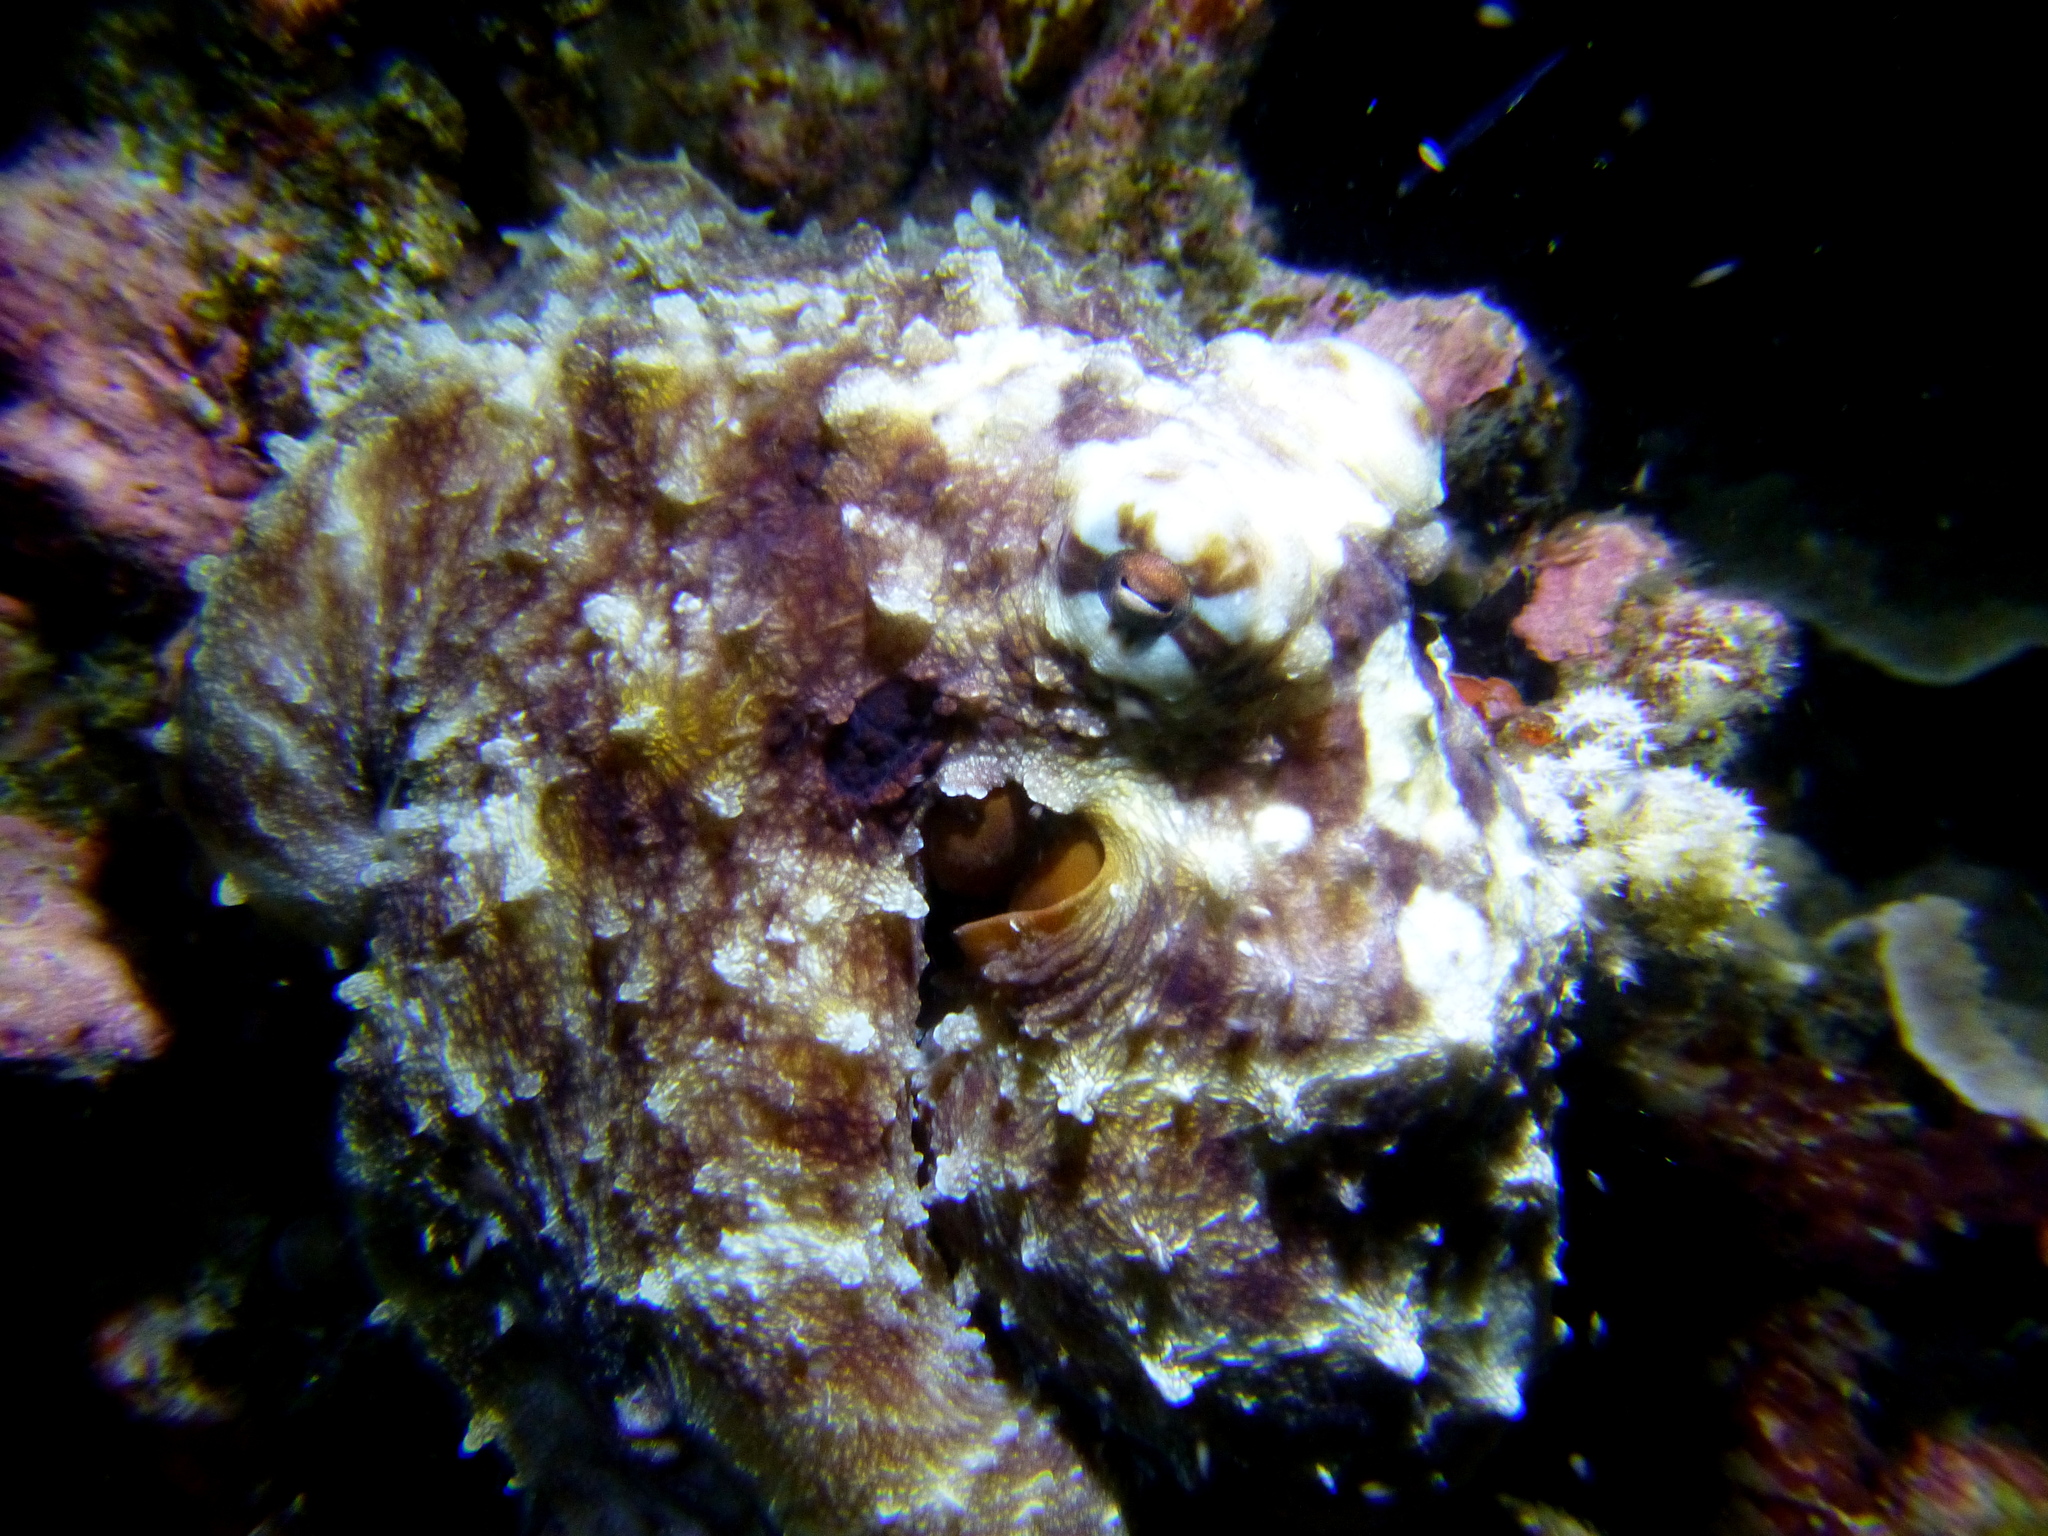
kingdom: Animalia
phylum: Mollusca
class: Cephalopoda
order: Octopoda
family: Octopodidae
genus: Octopus
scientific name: Octopus cyanea
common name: Cyane's octopus
